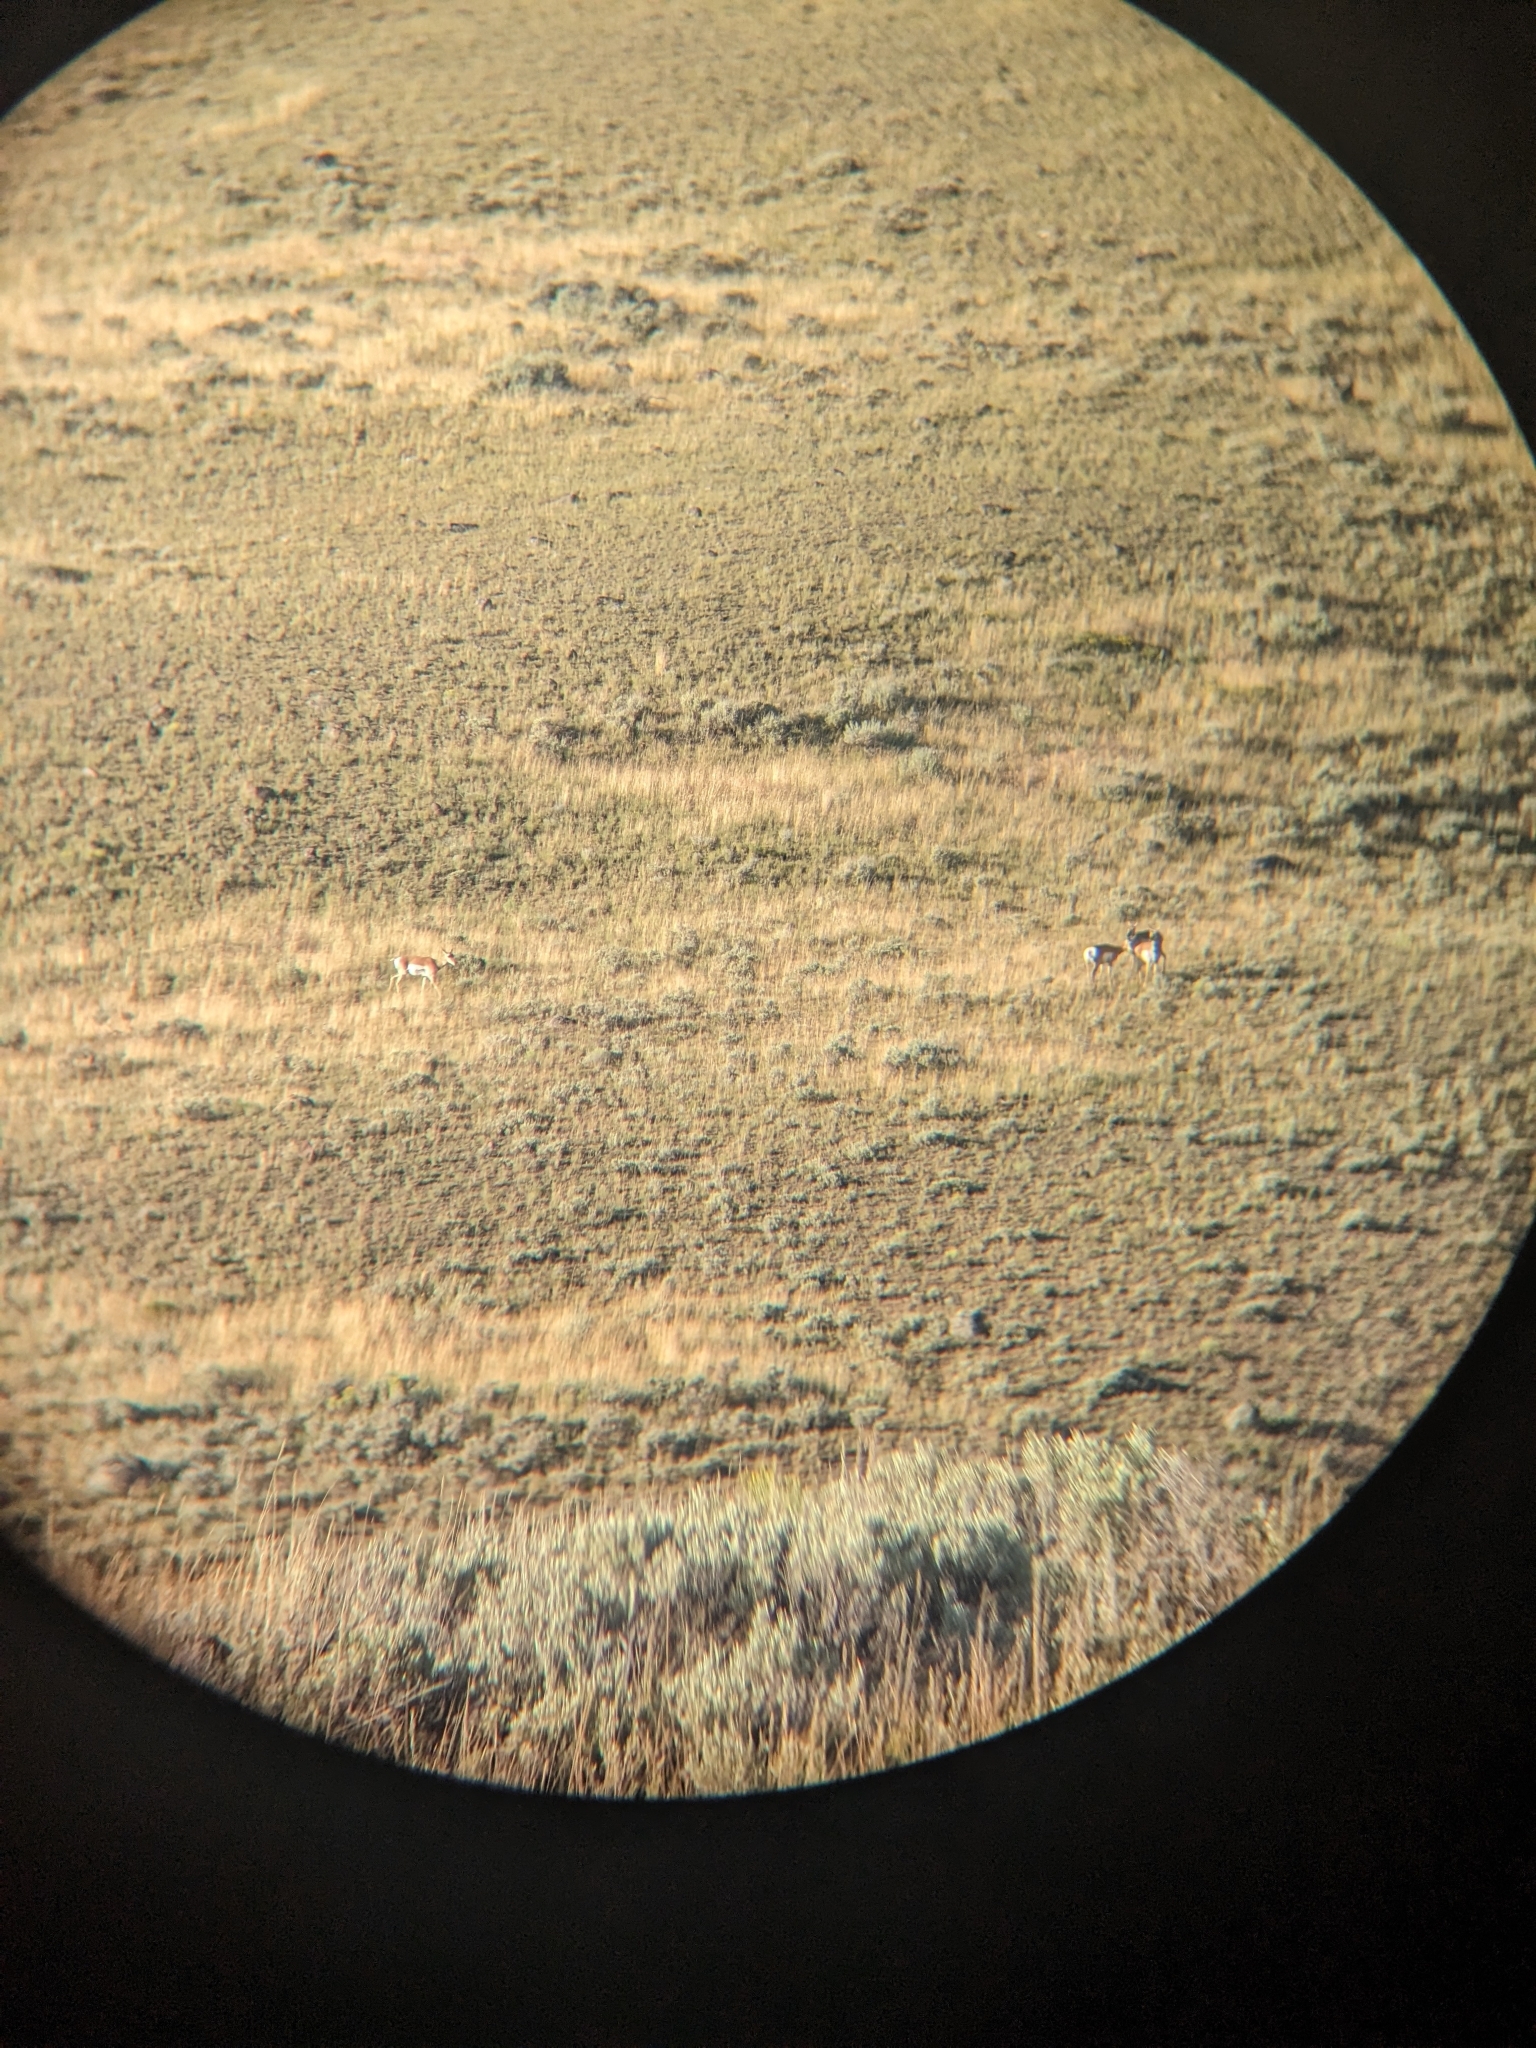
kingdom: Animalia
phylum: Chordata
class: Mammalia
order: Artiodactyla
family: Antilocapridae
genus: Antilocapra
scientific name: Antilocapra americana
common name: Pronghorn
